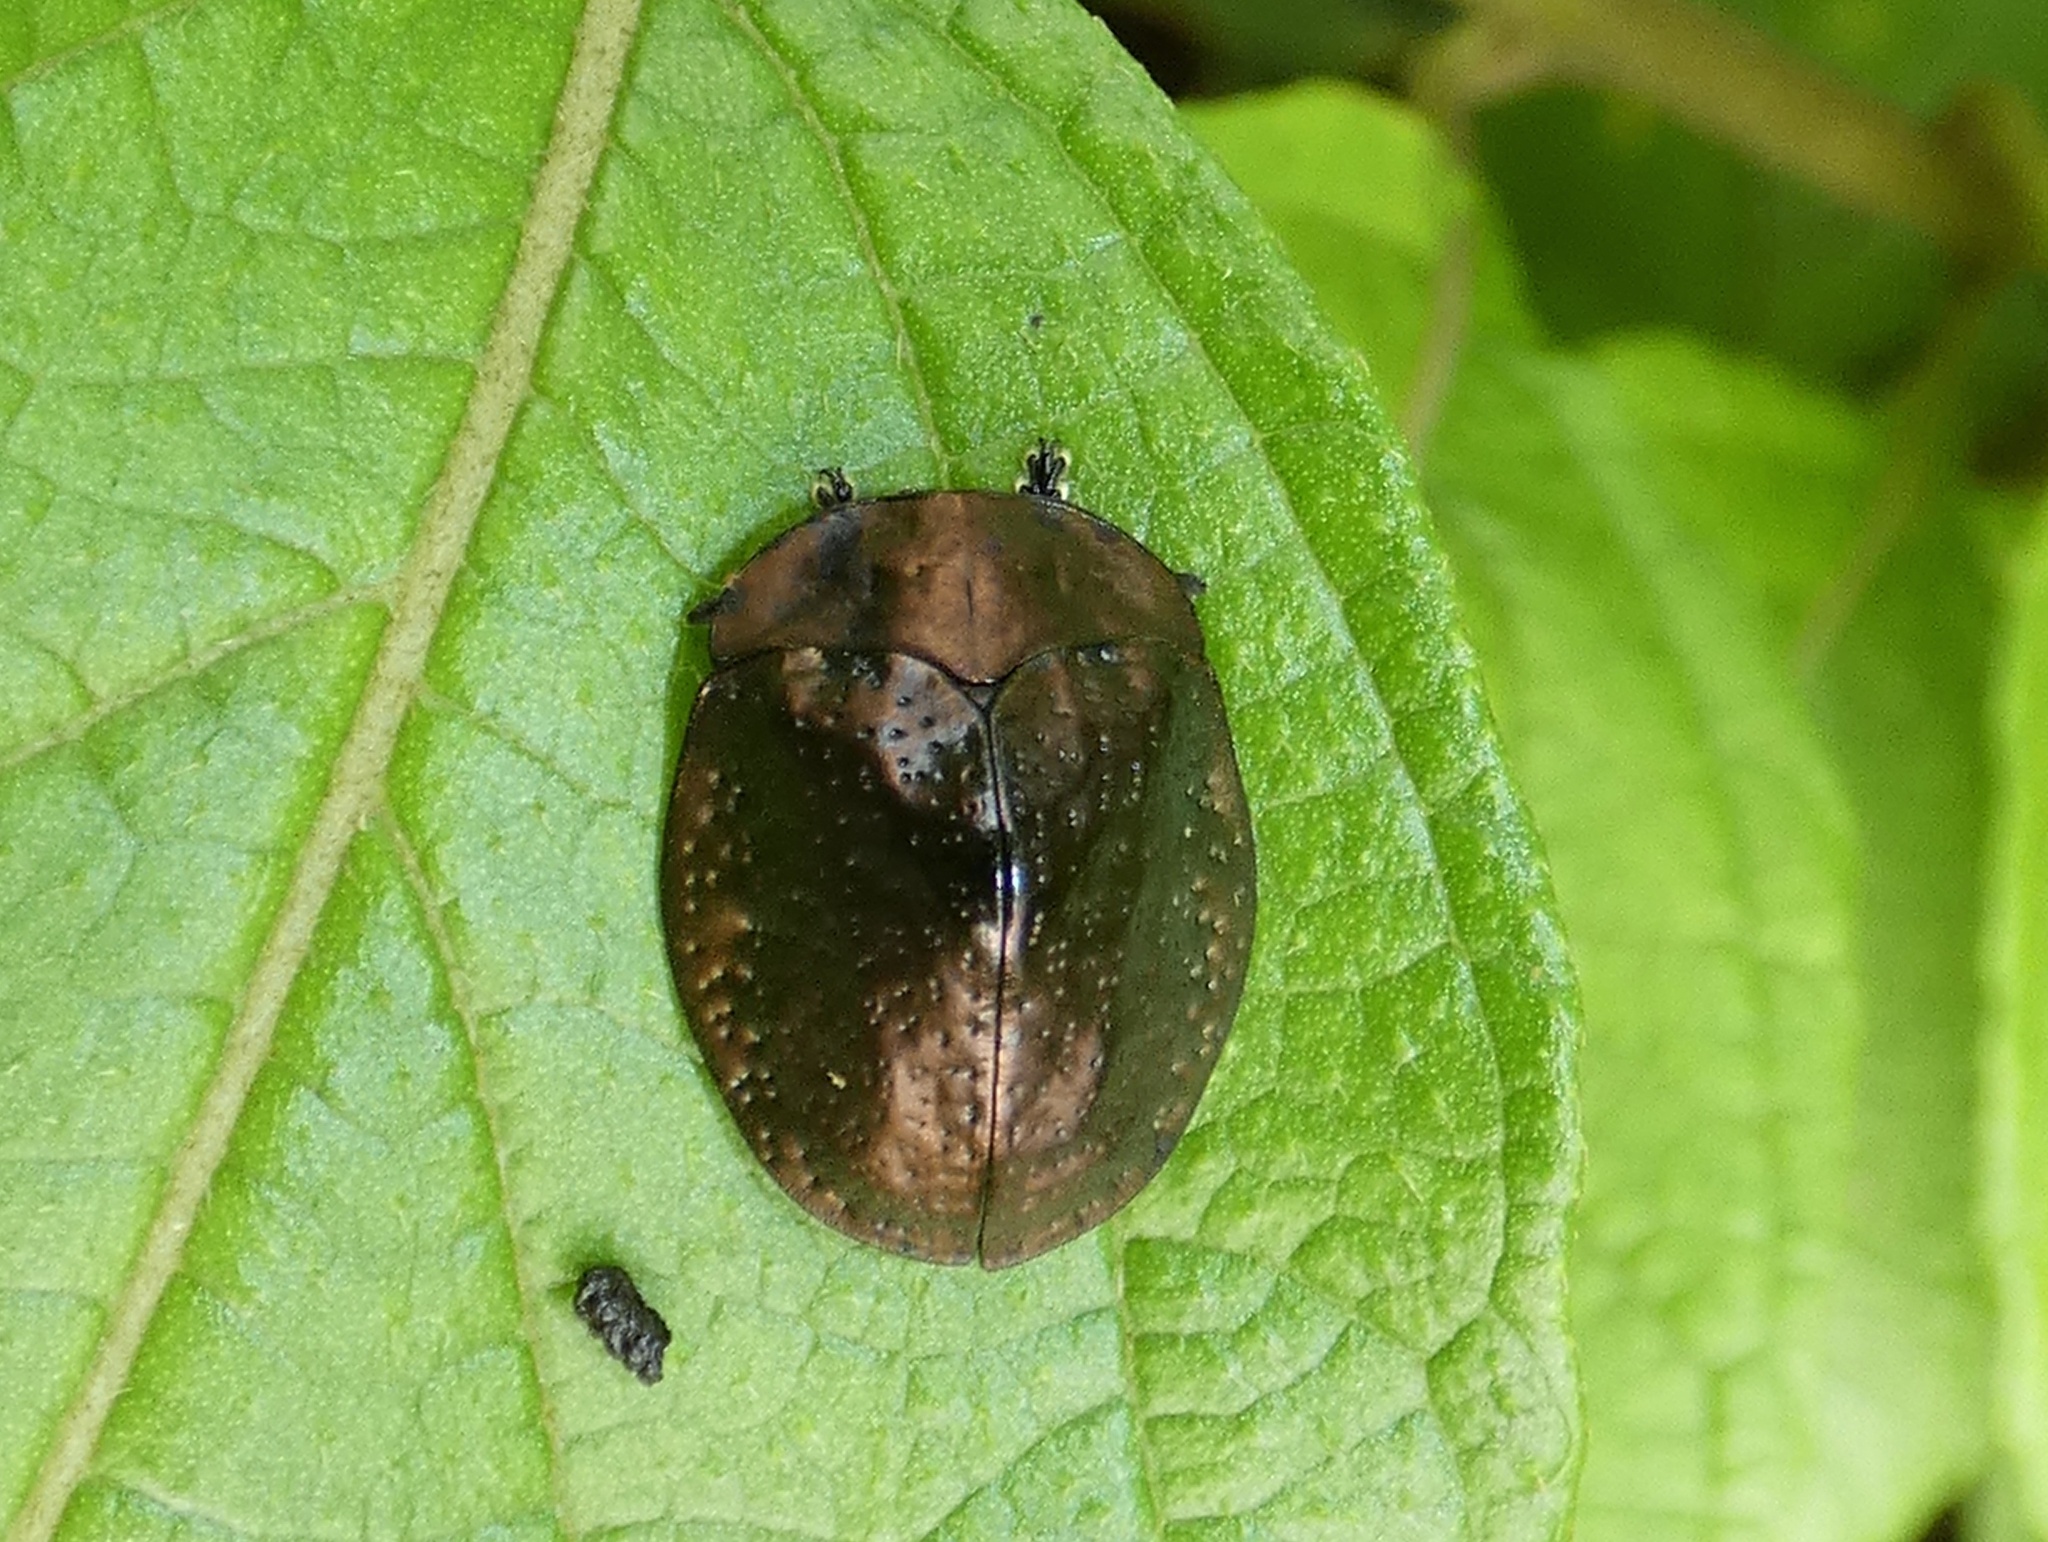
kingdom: Animalia
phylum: Arthropoda
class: Insecta
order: Coleoptera
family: Chrysomelidae
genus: Polychalma
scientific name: Polychalma multicava
